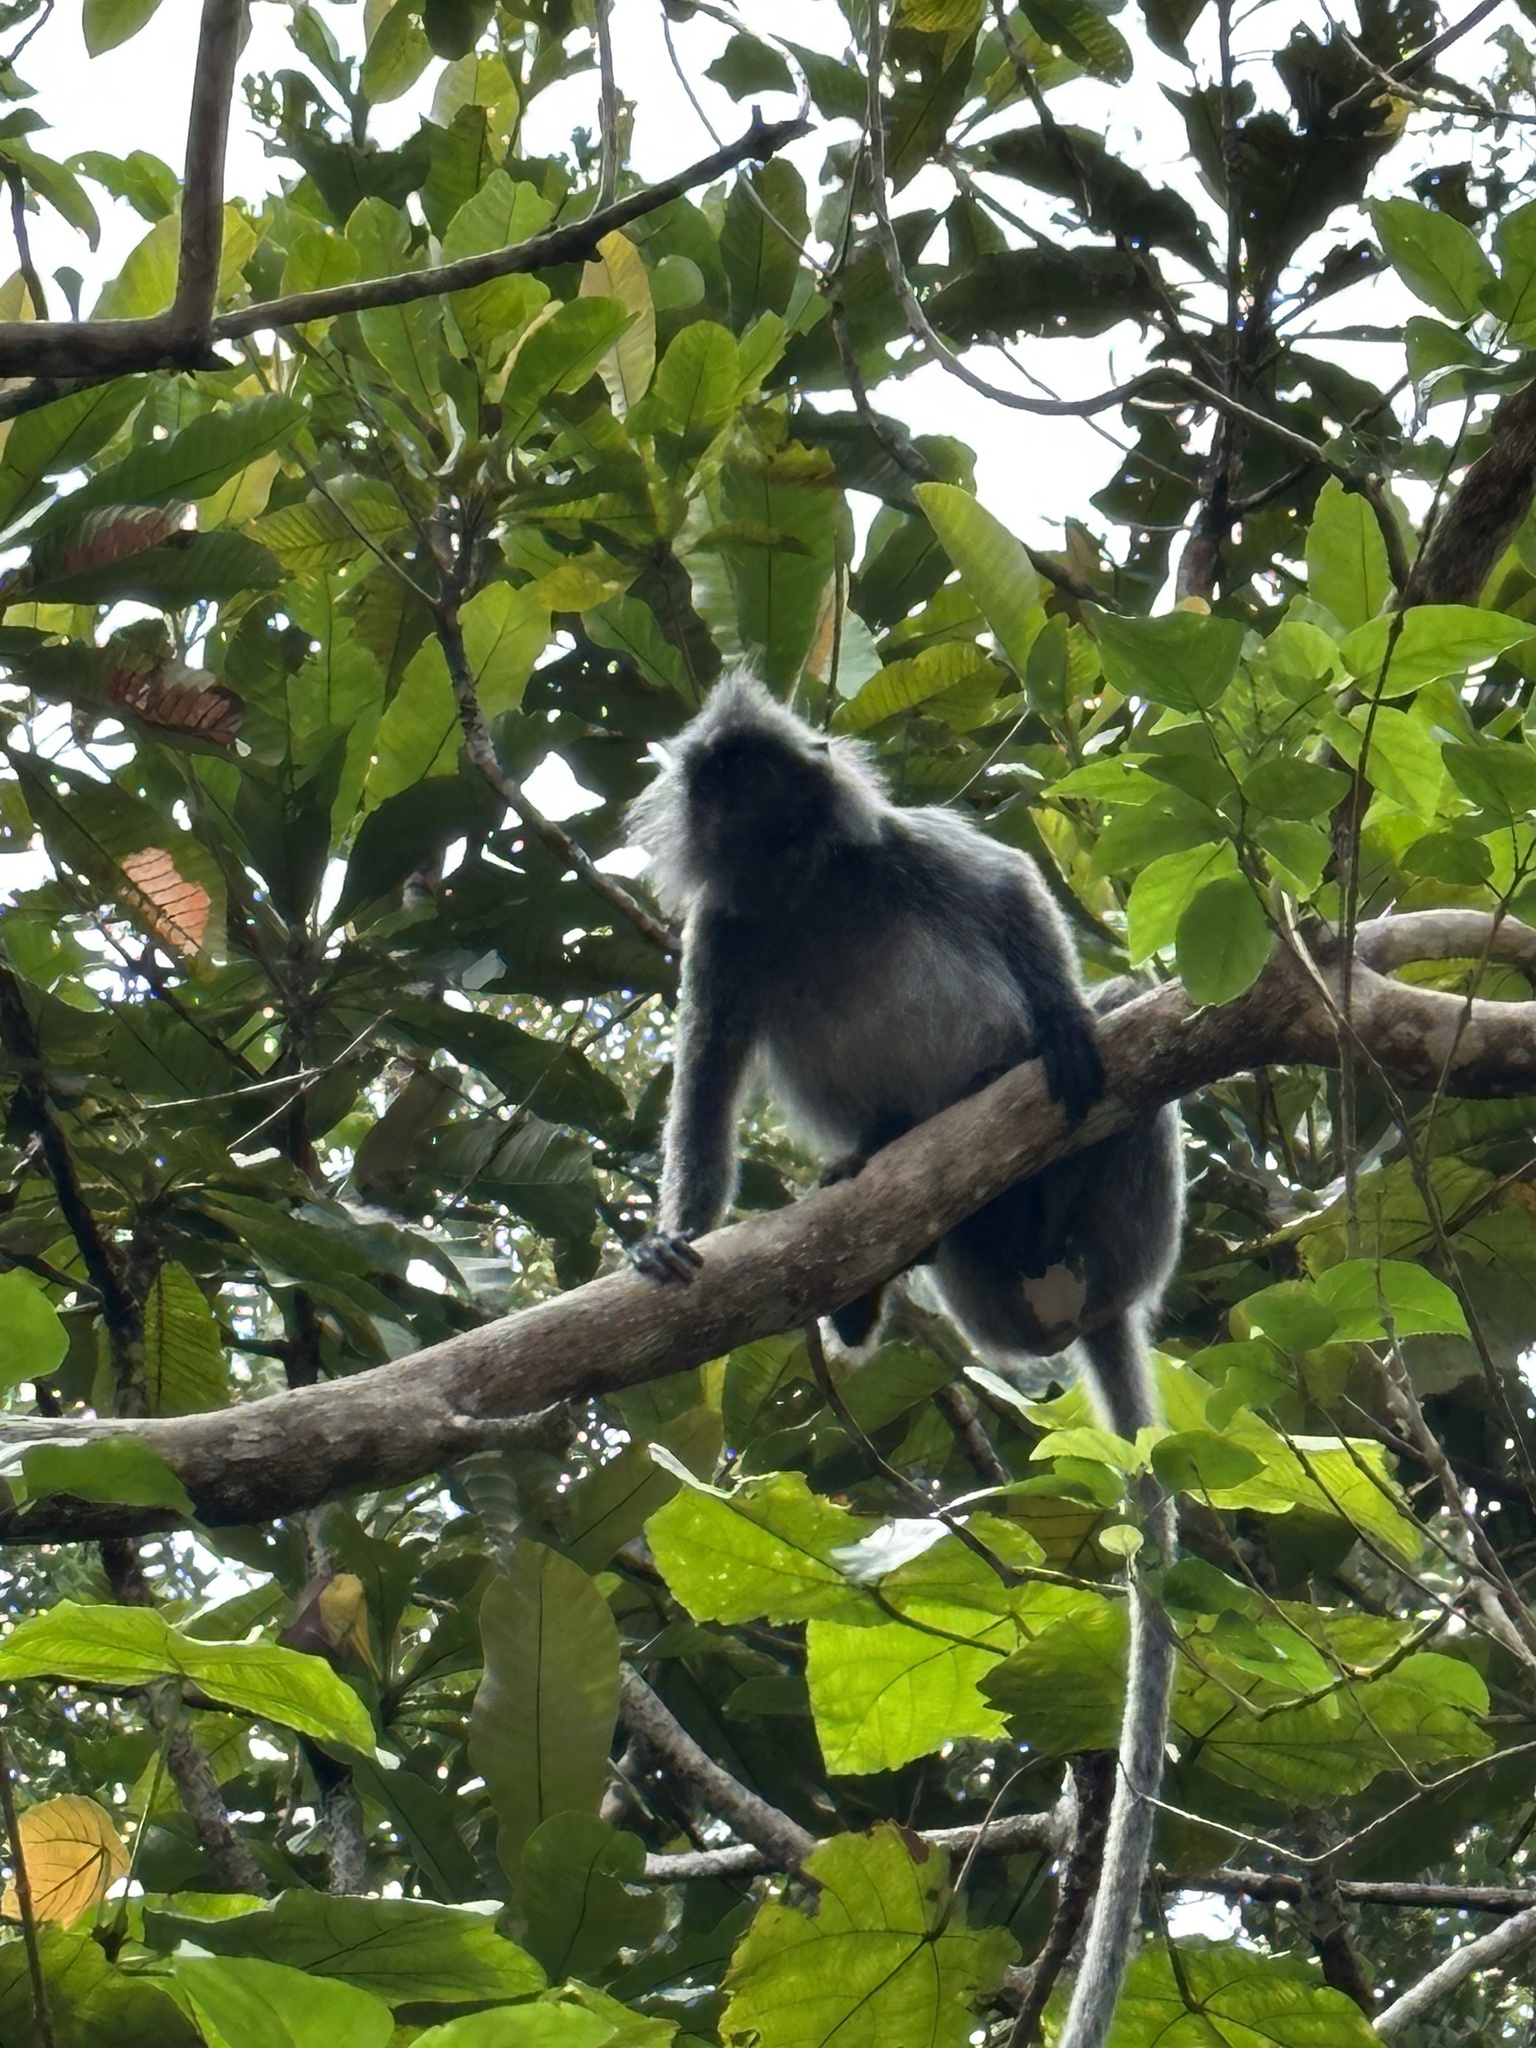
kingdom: Animalia
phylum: Chordata
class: Mammalia
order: Primates
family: Cercopithecidae
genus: Trachypithecus
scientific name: Trachypithecus cristatus
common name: Silvery lutung
